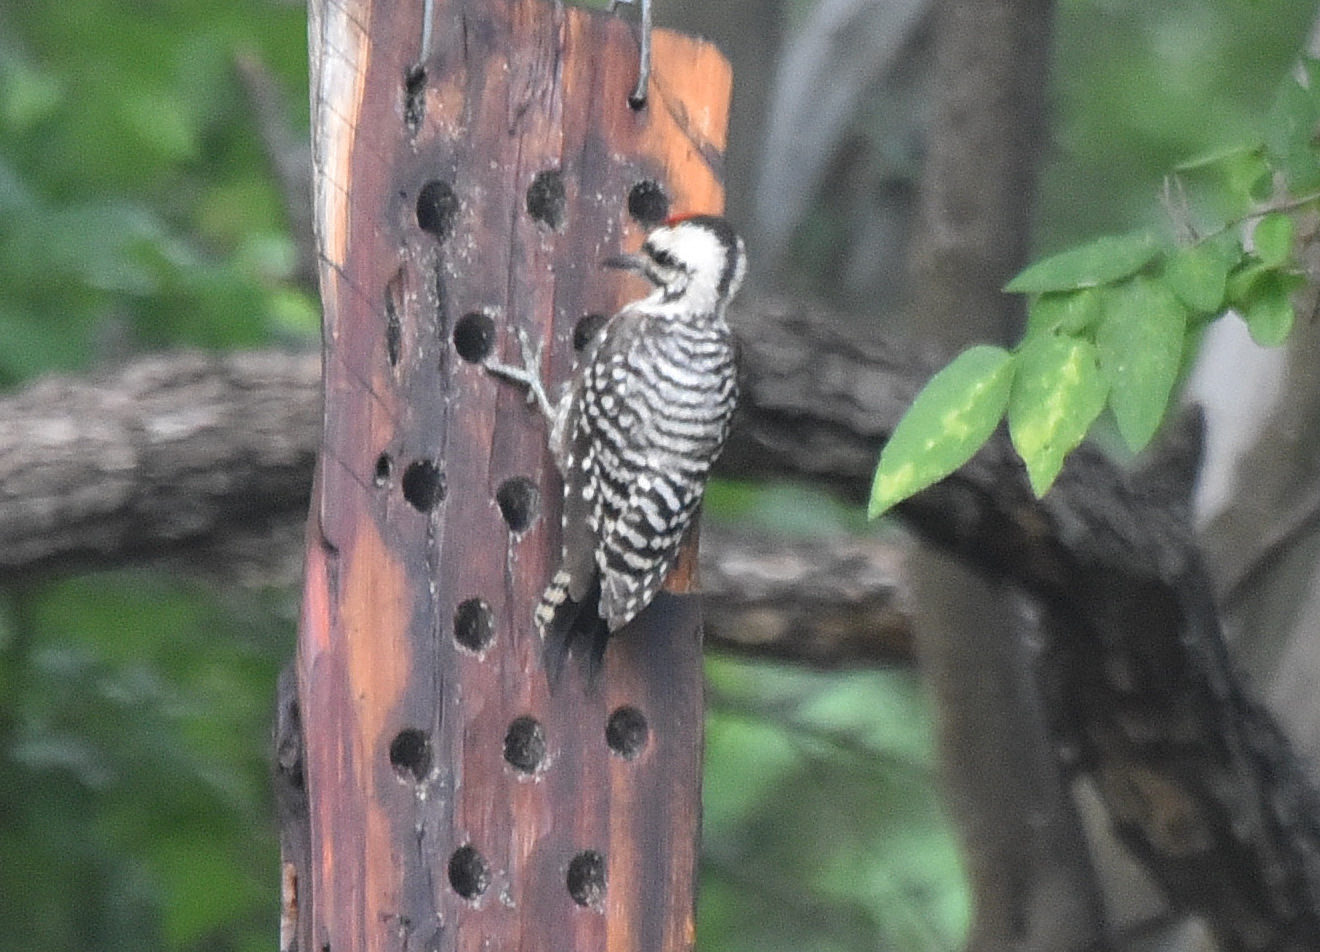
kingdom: Animalia
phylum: Chordata
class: Aves
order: Piciformes
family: Picidae
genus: Dryobates
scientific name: Dryobates scalaris
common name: Ladder-backed woodpecker
